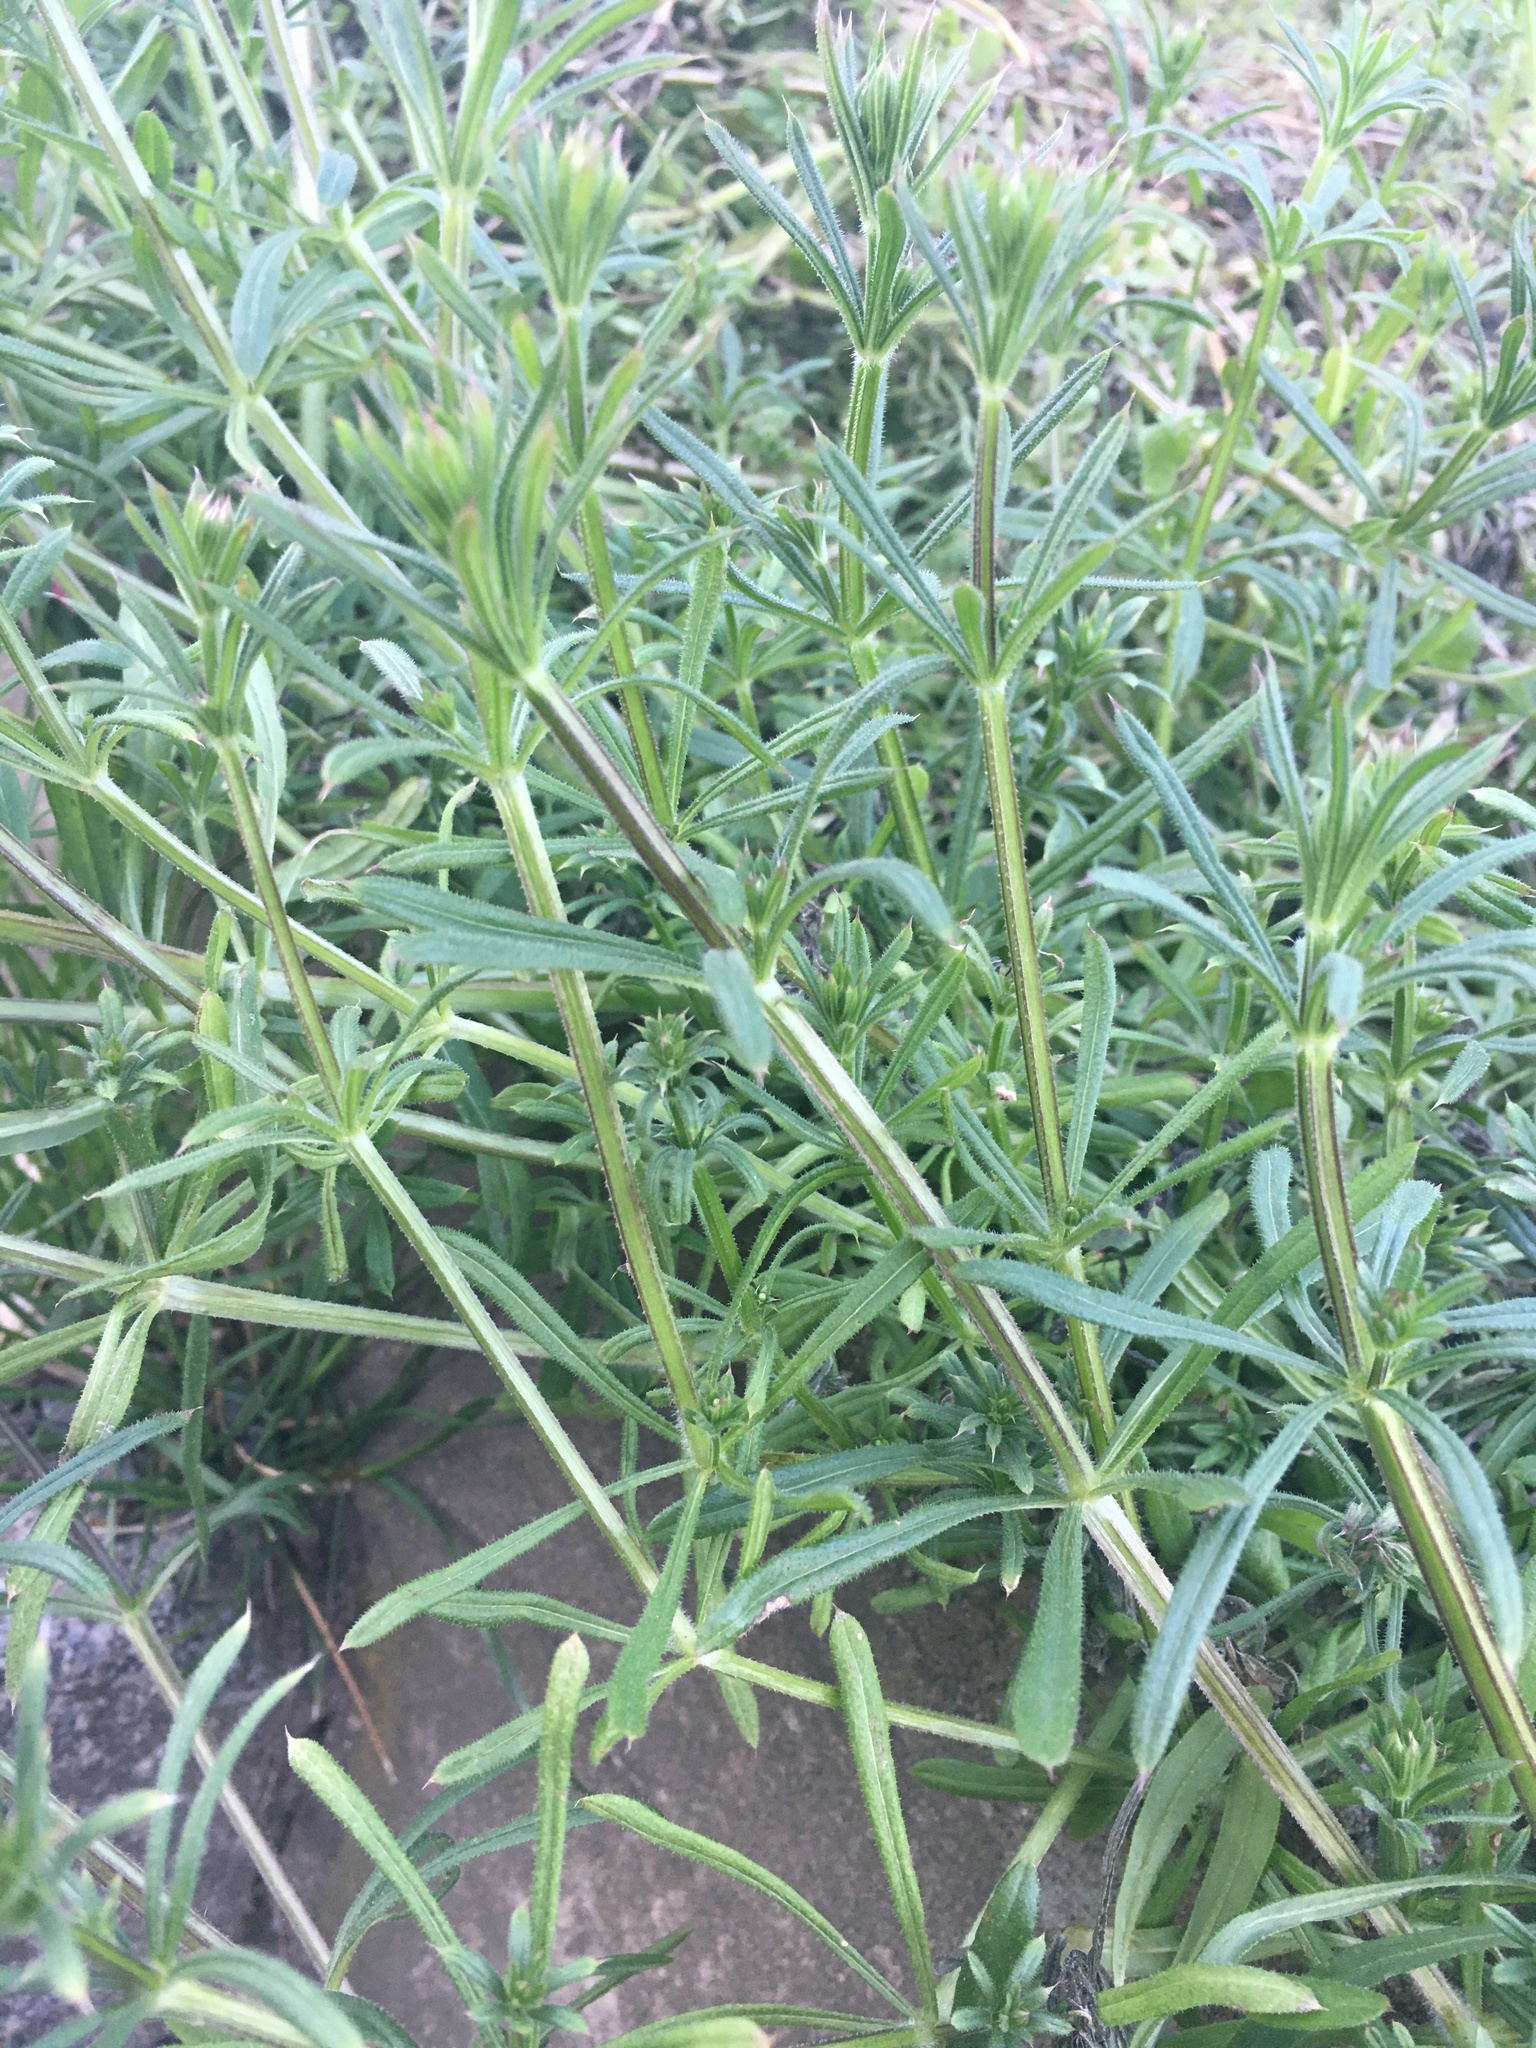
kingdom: Plantae
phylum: Tracheophyta
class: Magnoliopsida
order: Gentianales
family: Rubiaceae
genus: Galium
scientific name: Galium aparine
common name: Cleavers
